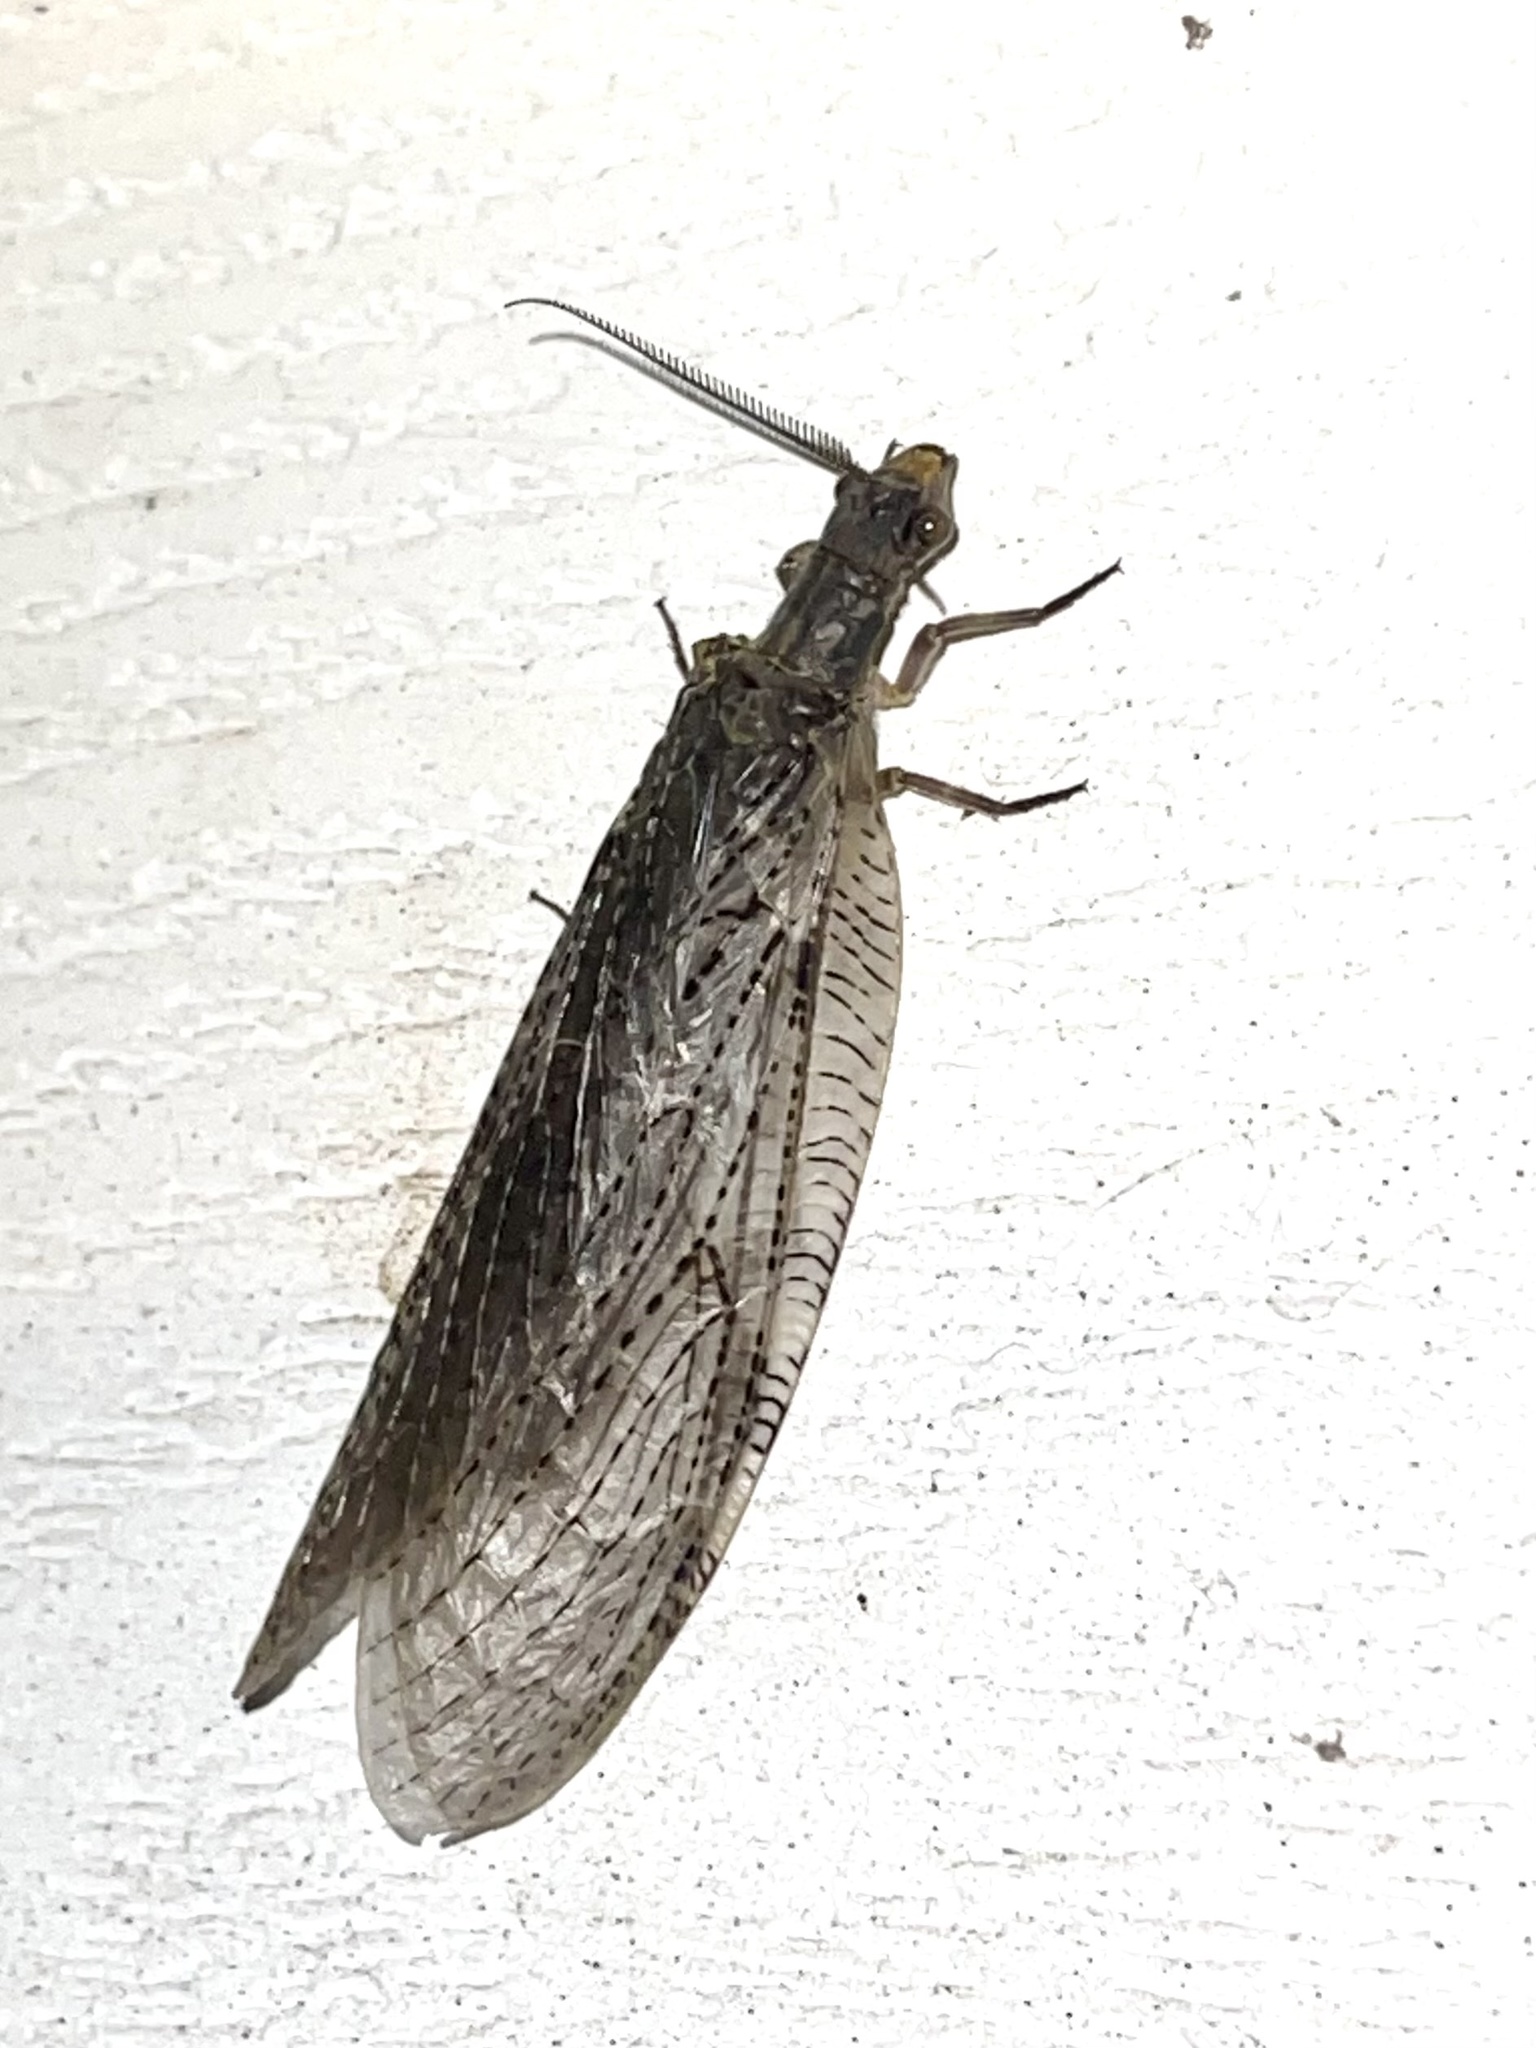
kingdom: Animalia
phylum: Arthropoda
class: Insecta
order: Megaloptera
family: Corydalidae
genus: Chauliodes
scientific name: Chauliodes pectinicornis
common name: Summer fishfly
